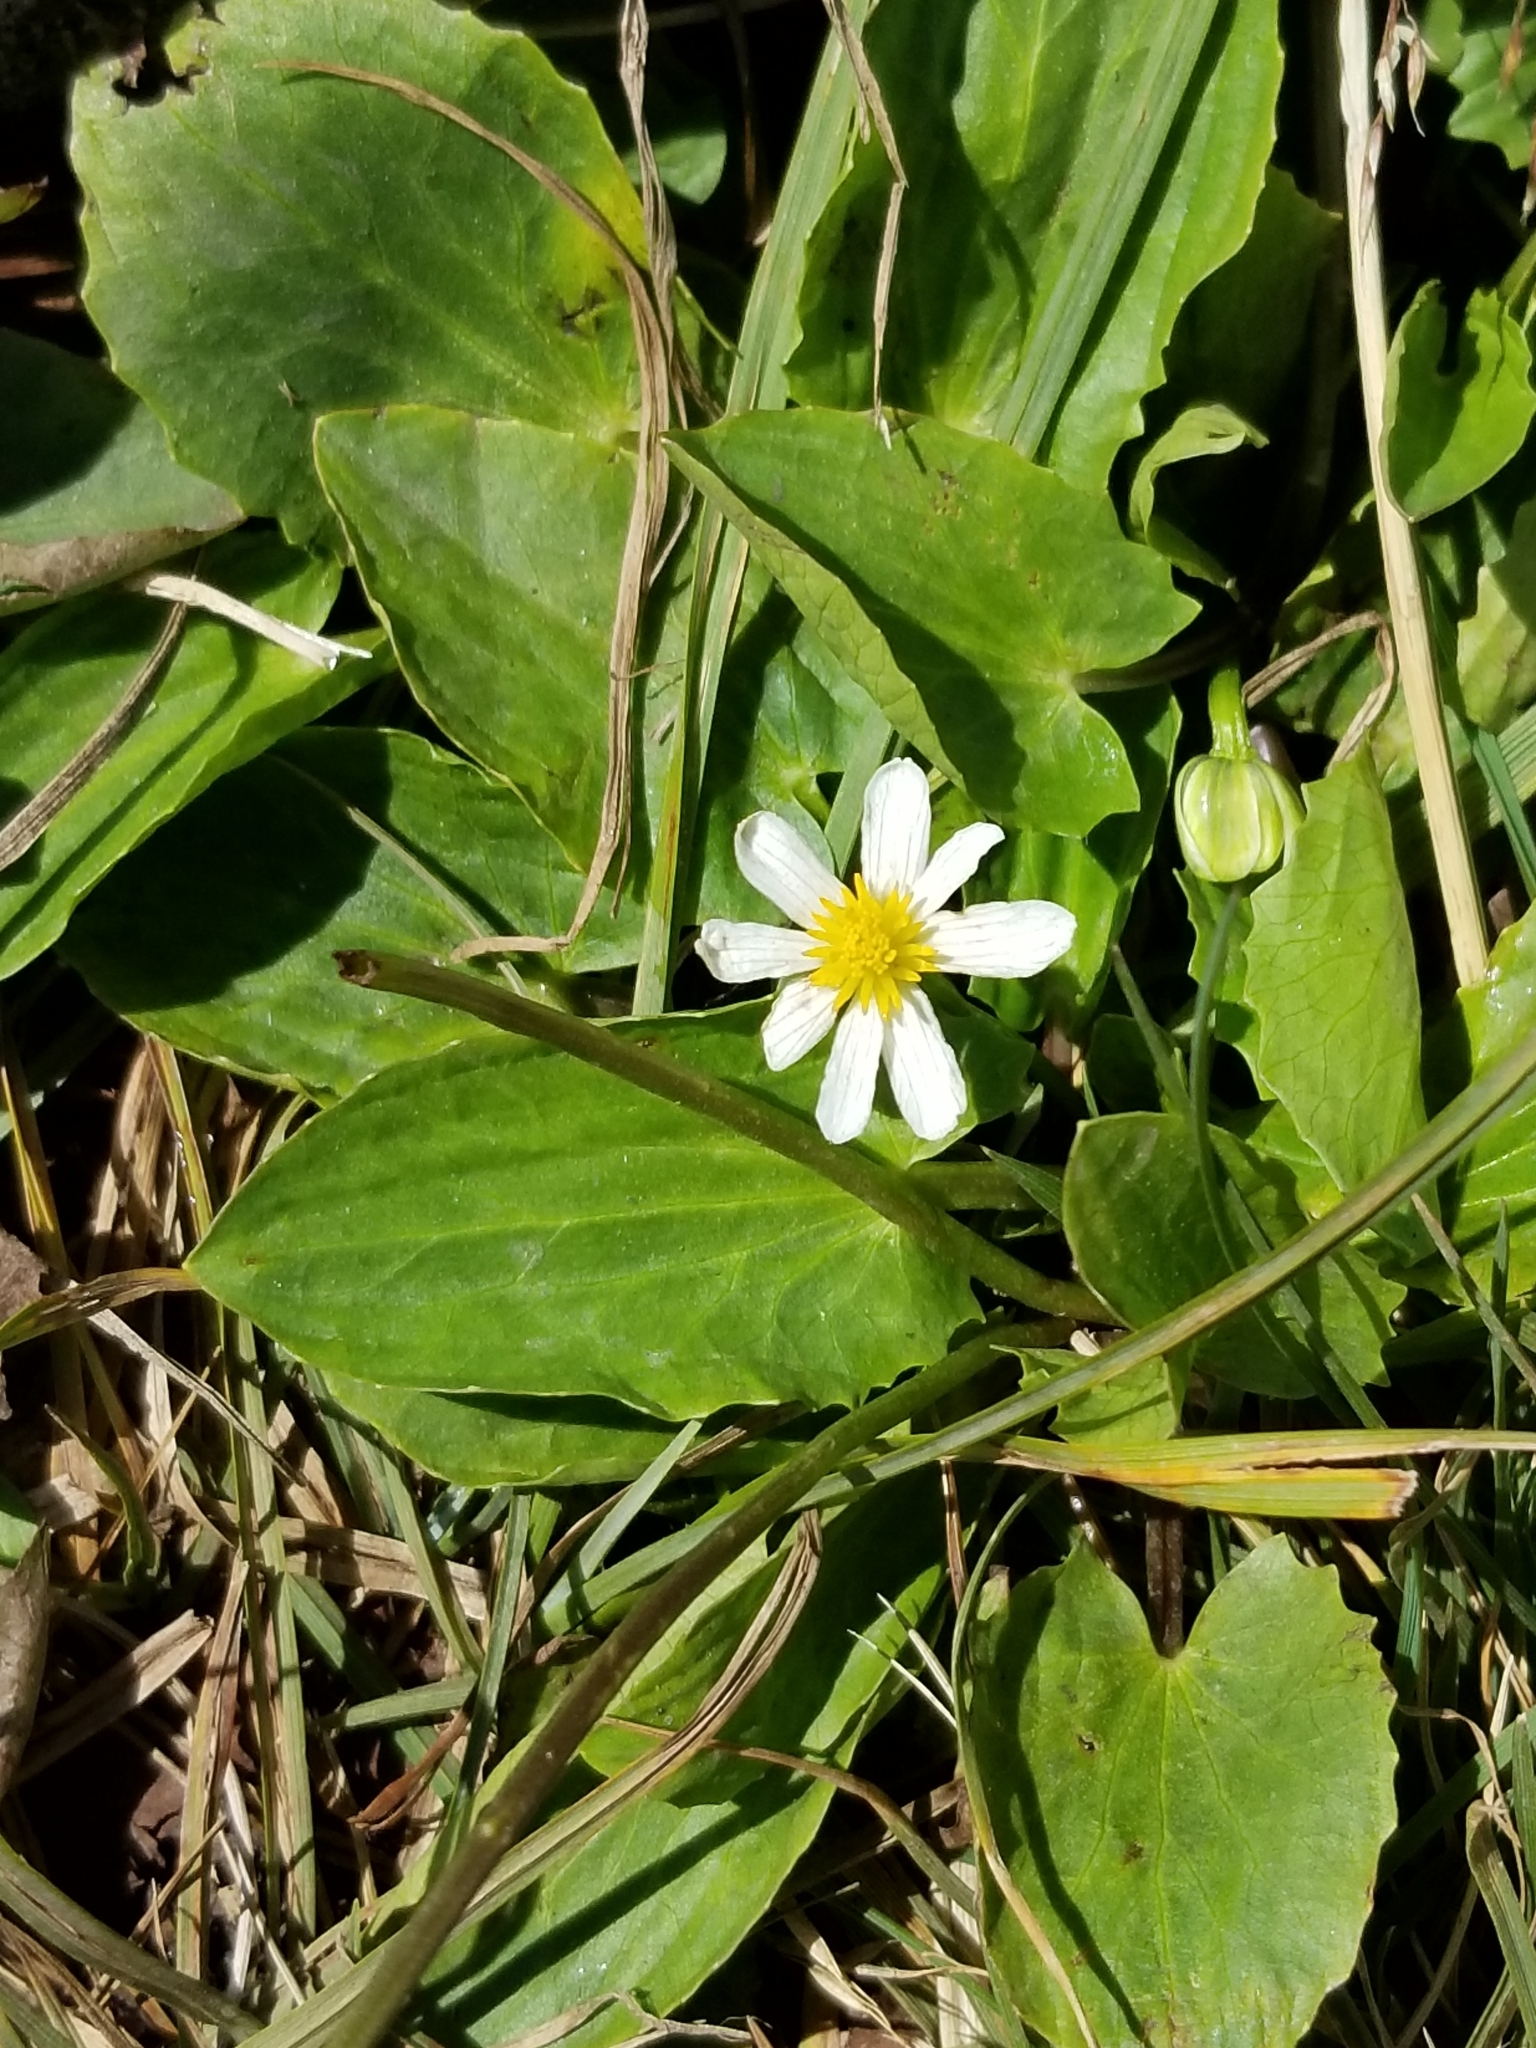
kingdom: Plantae
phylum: Tracheophyta
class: Magnoliopsida
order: Ranunculales
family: Ranunculaceae
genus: Caltha
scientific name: Caltha leptosepala
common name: Elkslip
